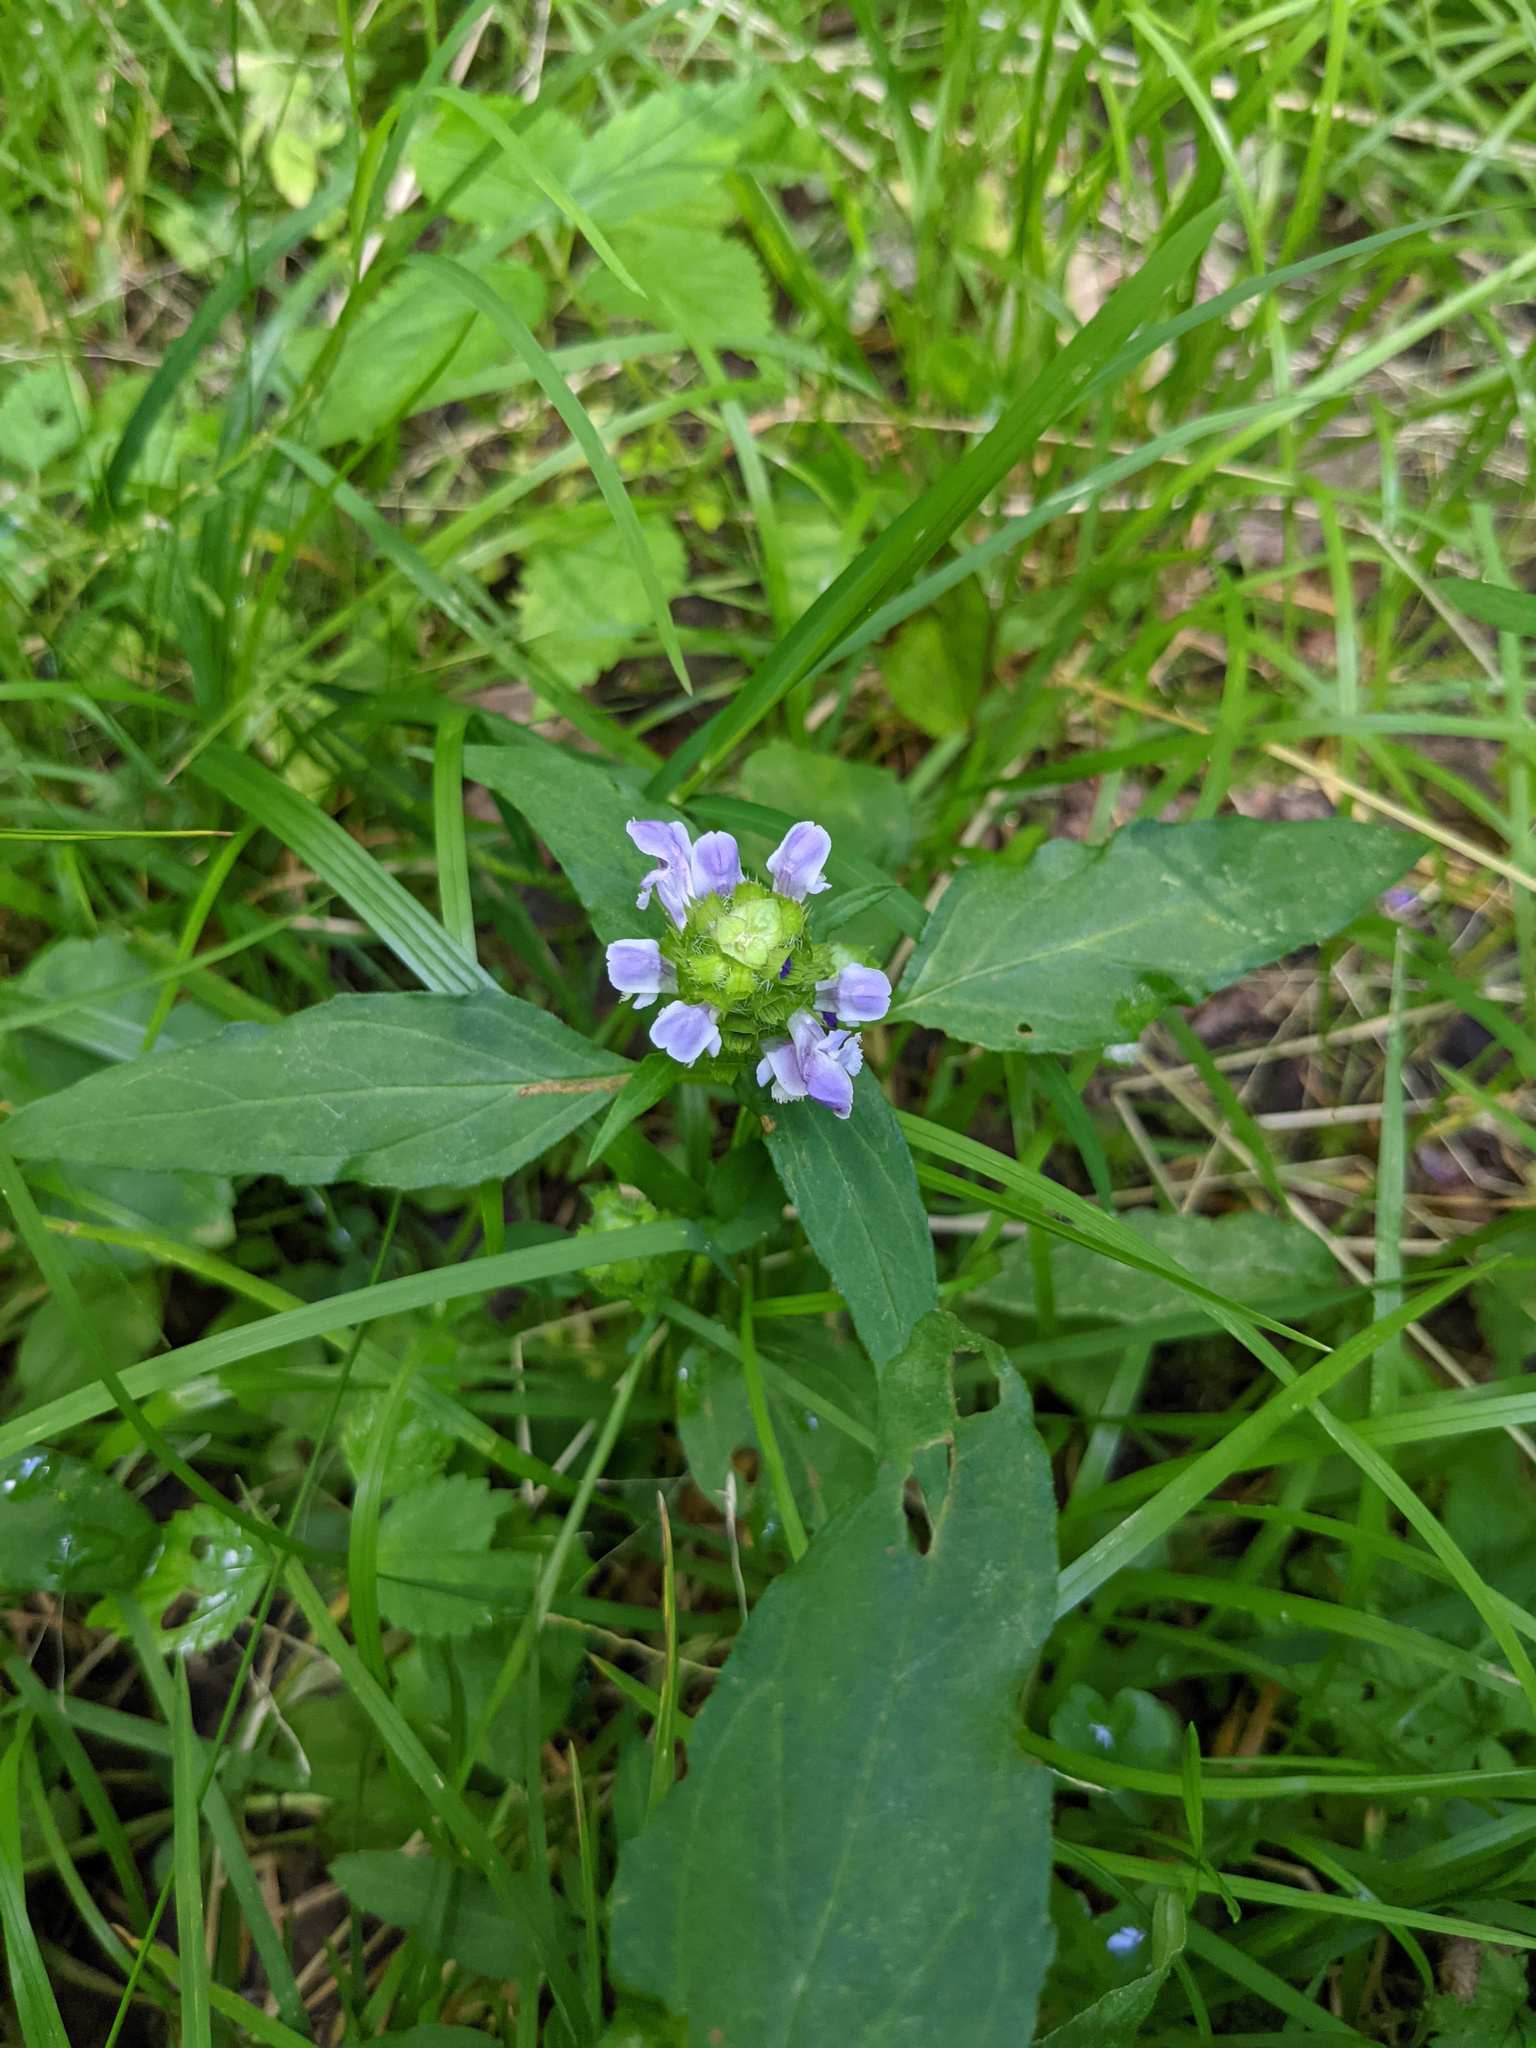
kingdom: Plantae
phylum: Tracheophyta
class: Magnoliopsida
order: Lamiales
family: Lamiaceae
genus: Prunella
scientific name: Prunella vulgaris
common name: Heal-all
